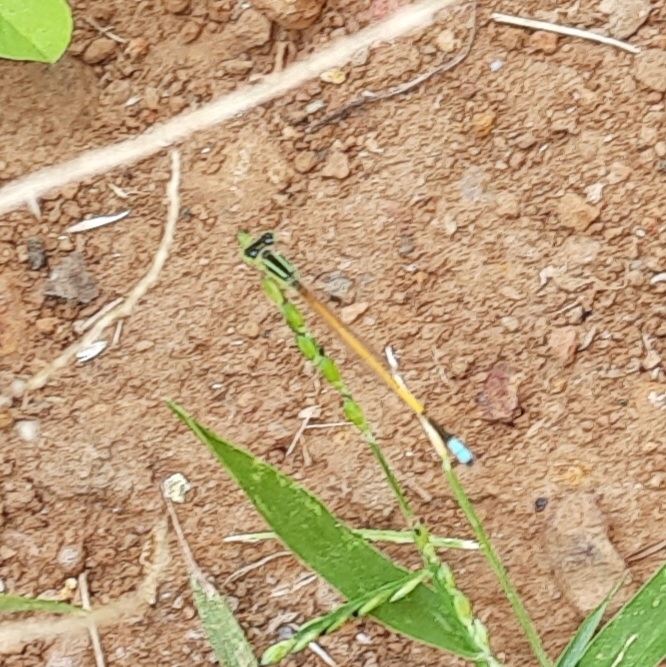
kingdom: Animalia
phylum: Arthropoda
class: Insecta
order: Odonata
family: Coenagrionidae
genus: Ischnura
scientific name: Ischnura rubilio
